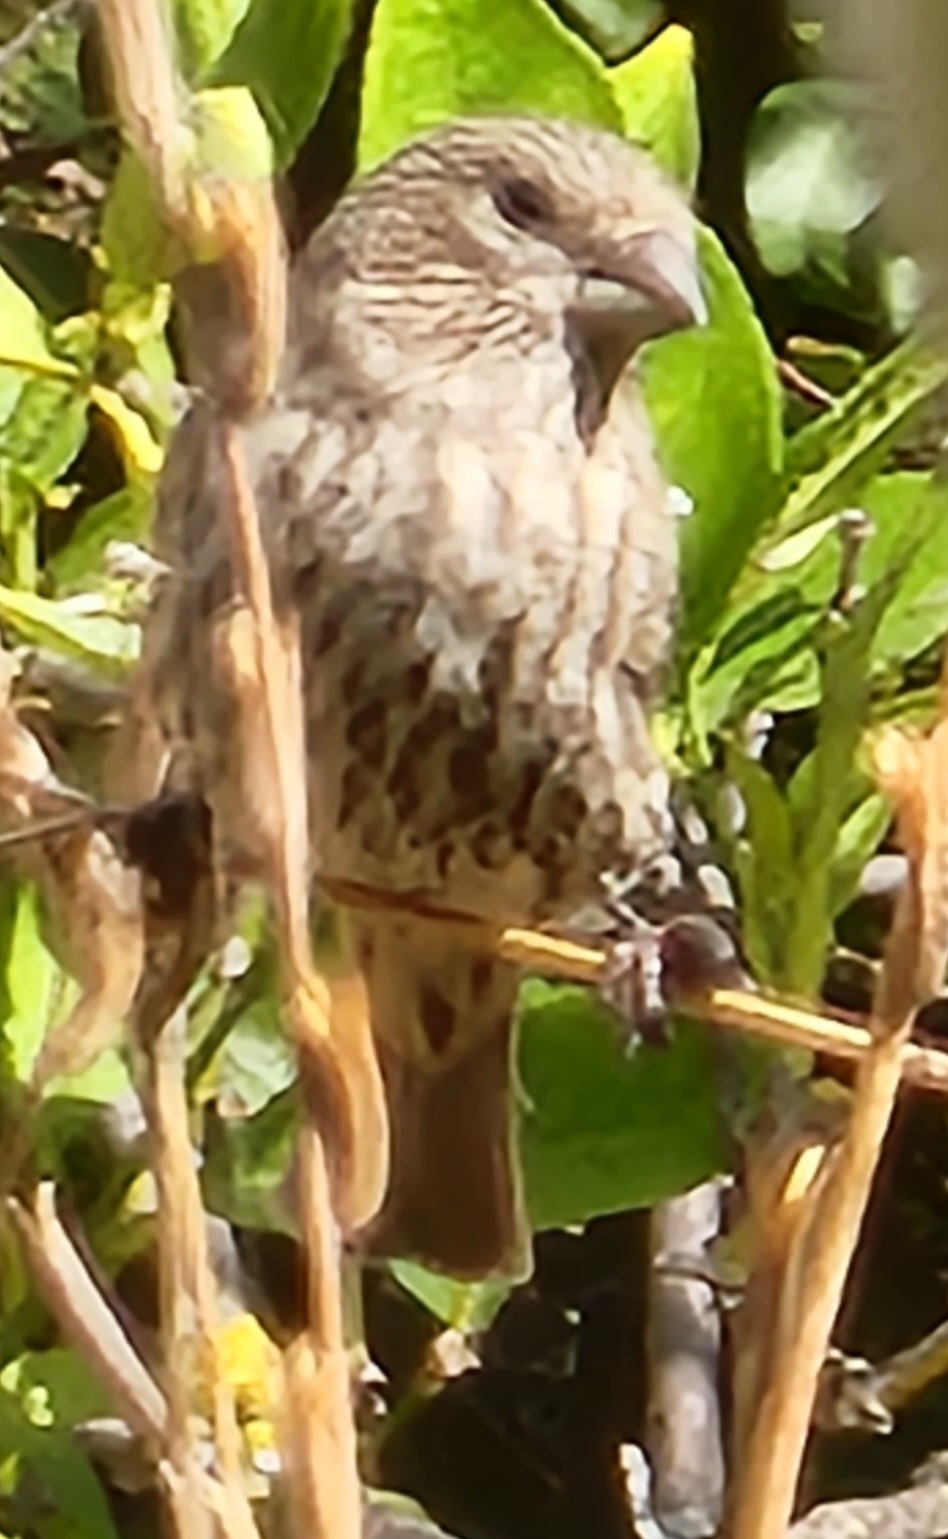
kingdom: Animalia
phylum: Chordata
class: Aves
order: Passeriformes
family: Fringillidae
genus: Haemorhous
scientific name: Haemorhous mexicanus
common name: House finch
